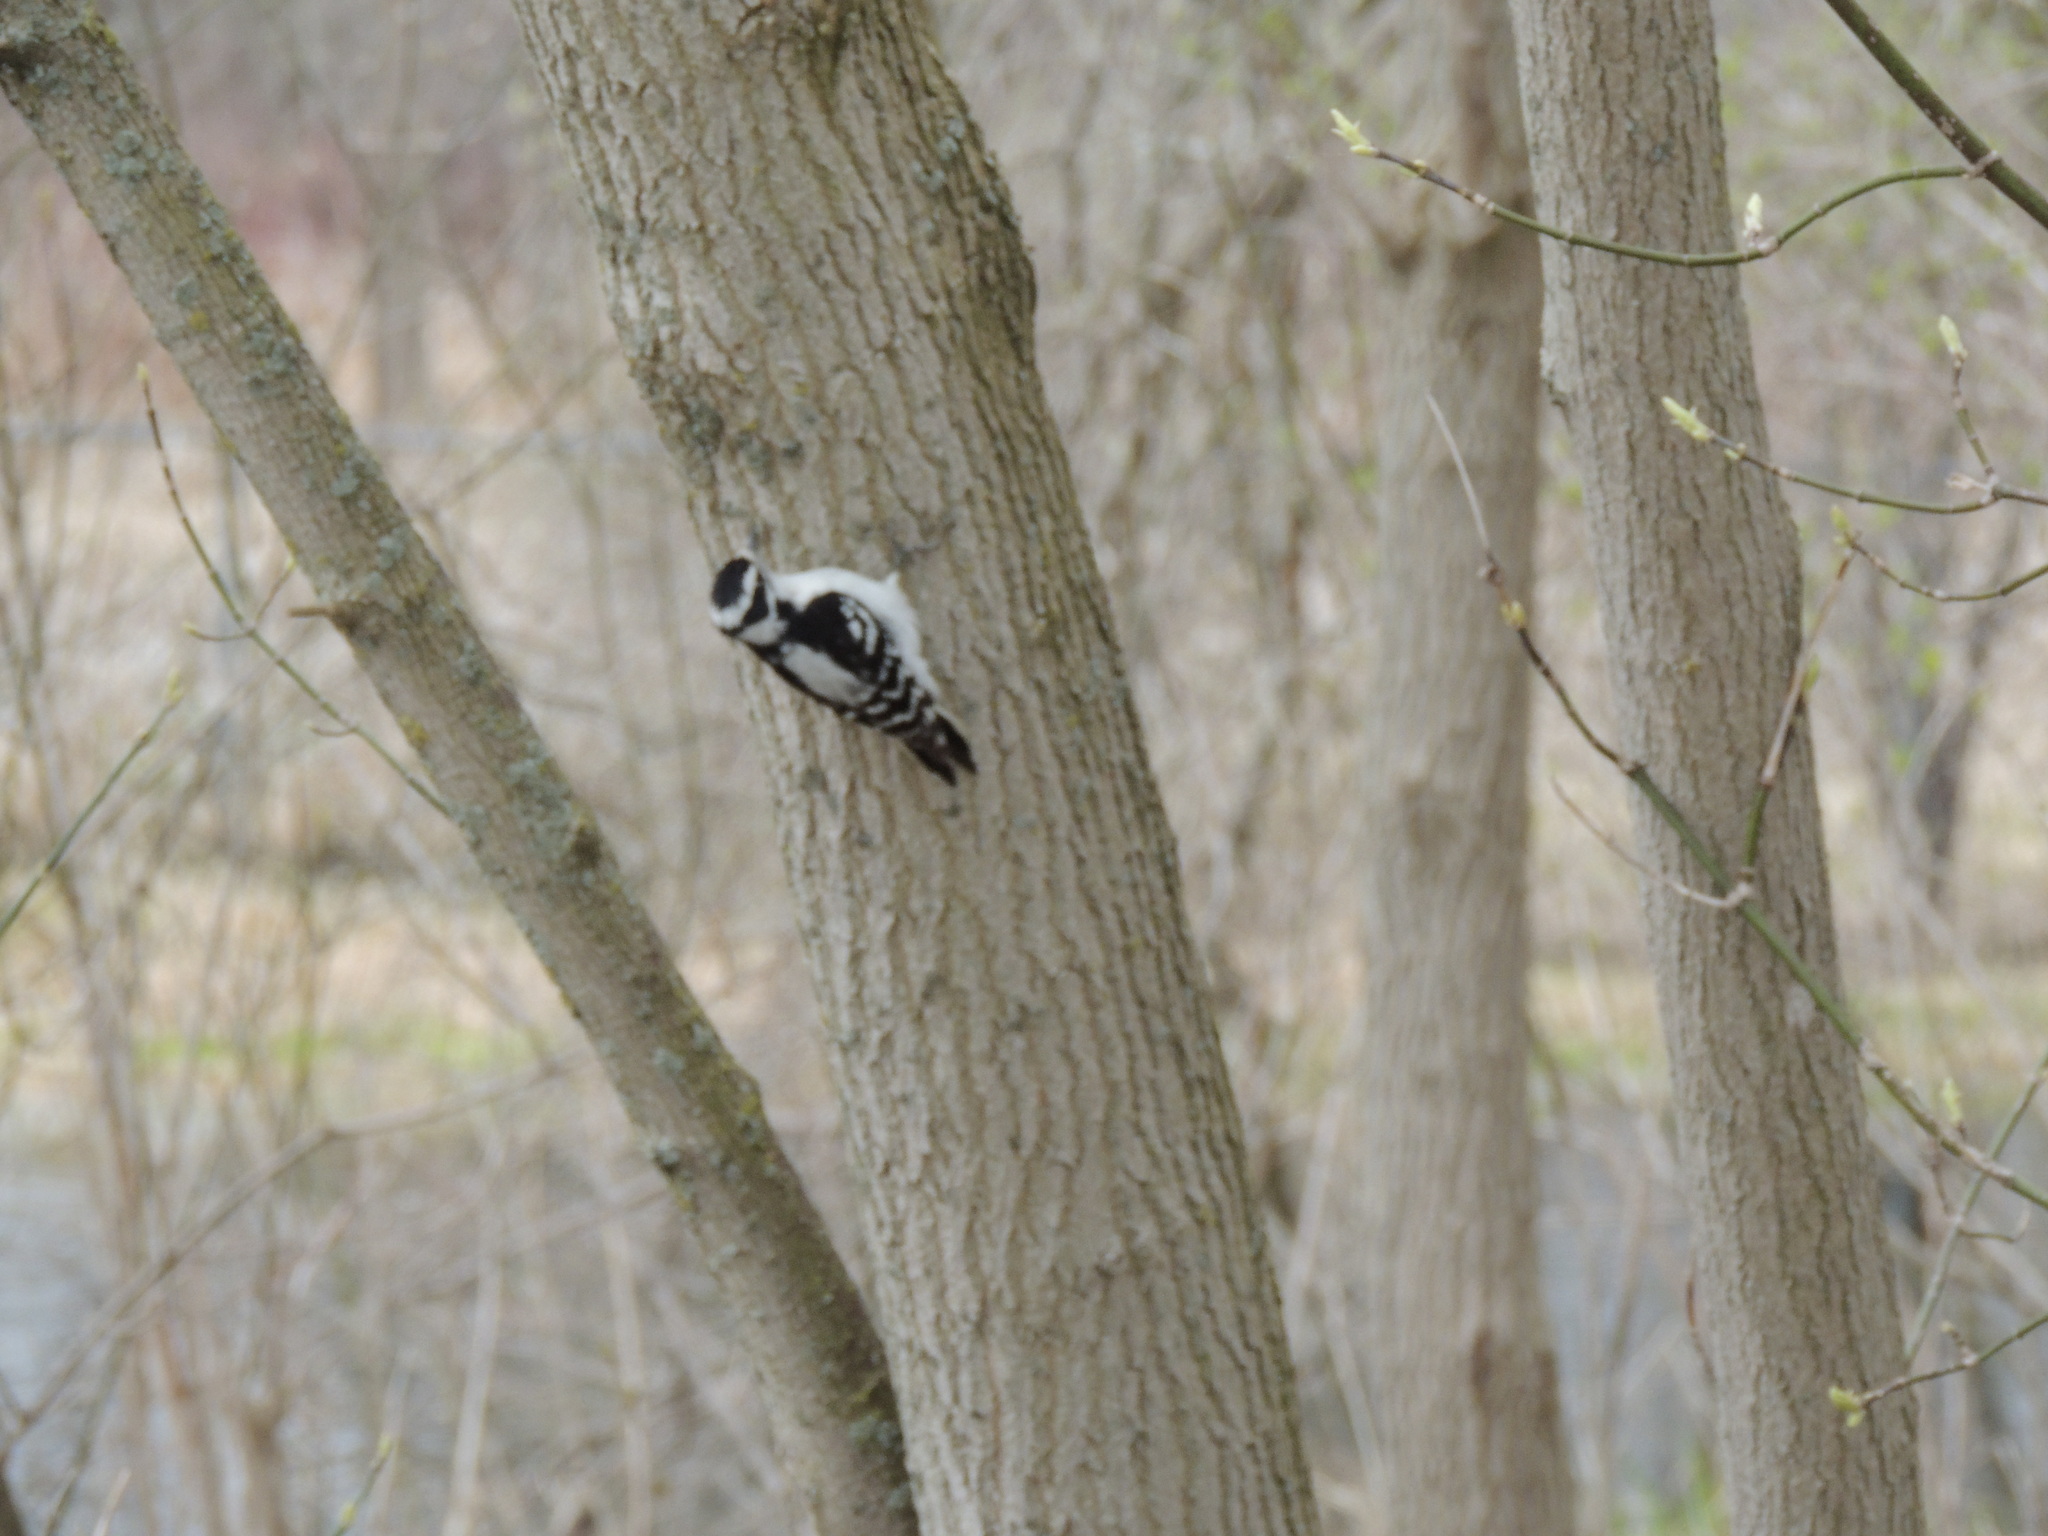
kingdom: Animalia
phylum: Chordata
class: Aves
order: Piciformes
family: Picidae
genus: Leuconotopicus
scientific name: Leuconotopicus villosus
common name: Hairy woodpecker
